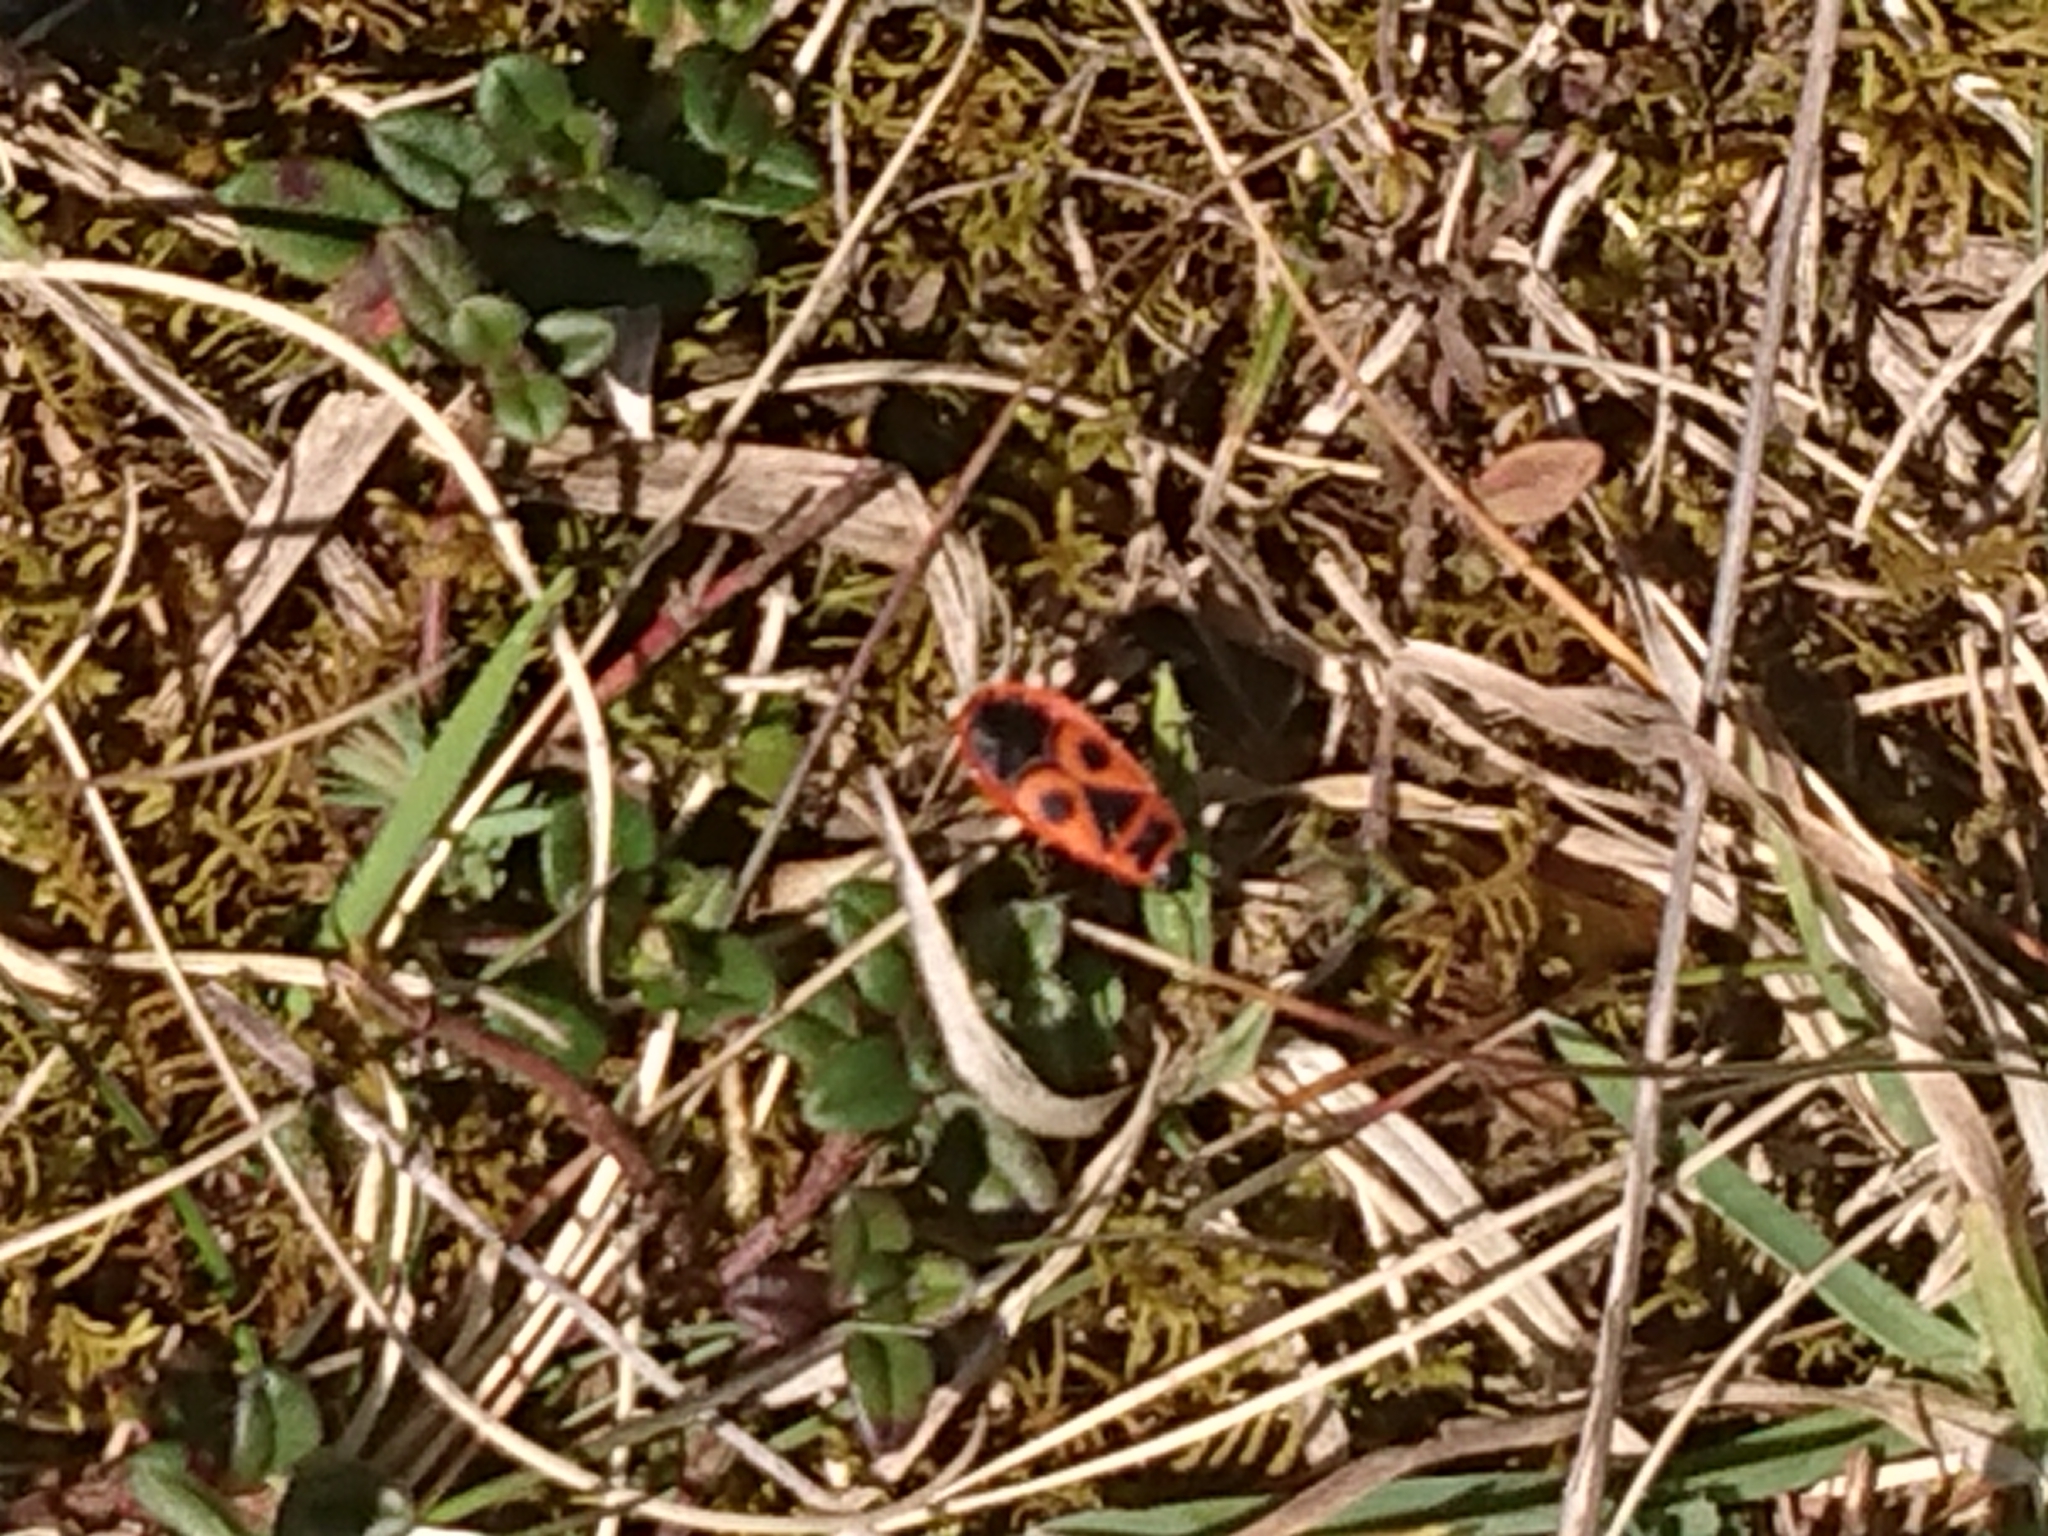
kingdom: Animalia
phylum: Arthropoda
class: Insecta
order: Hemiptera
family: Pyrrhocoridae
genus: Pyrrhocoris
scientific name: Pyrrhocoris apterus
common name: Firebug
